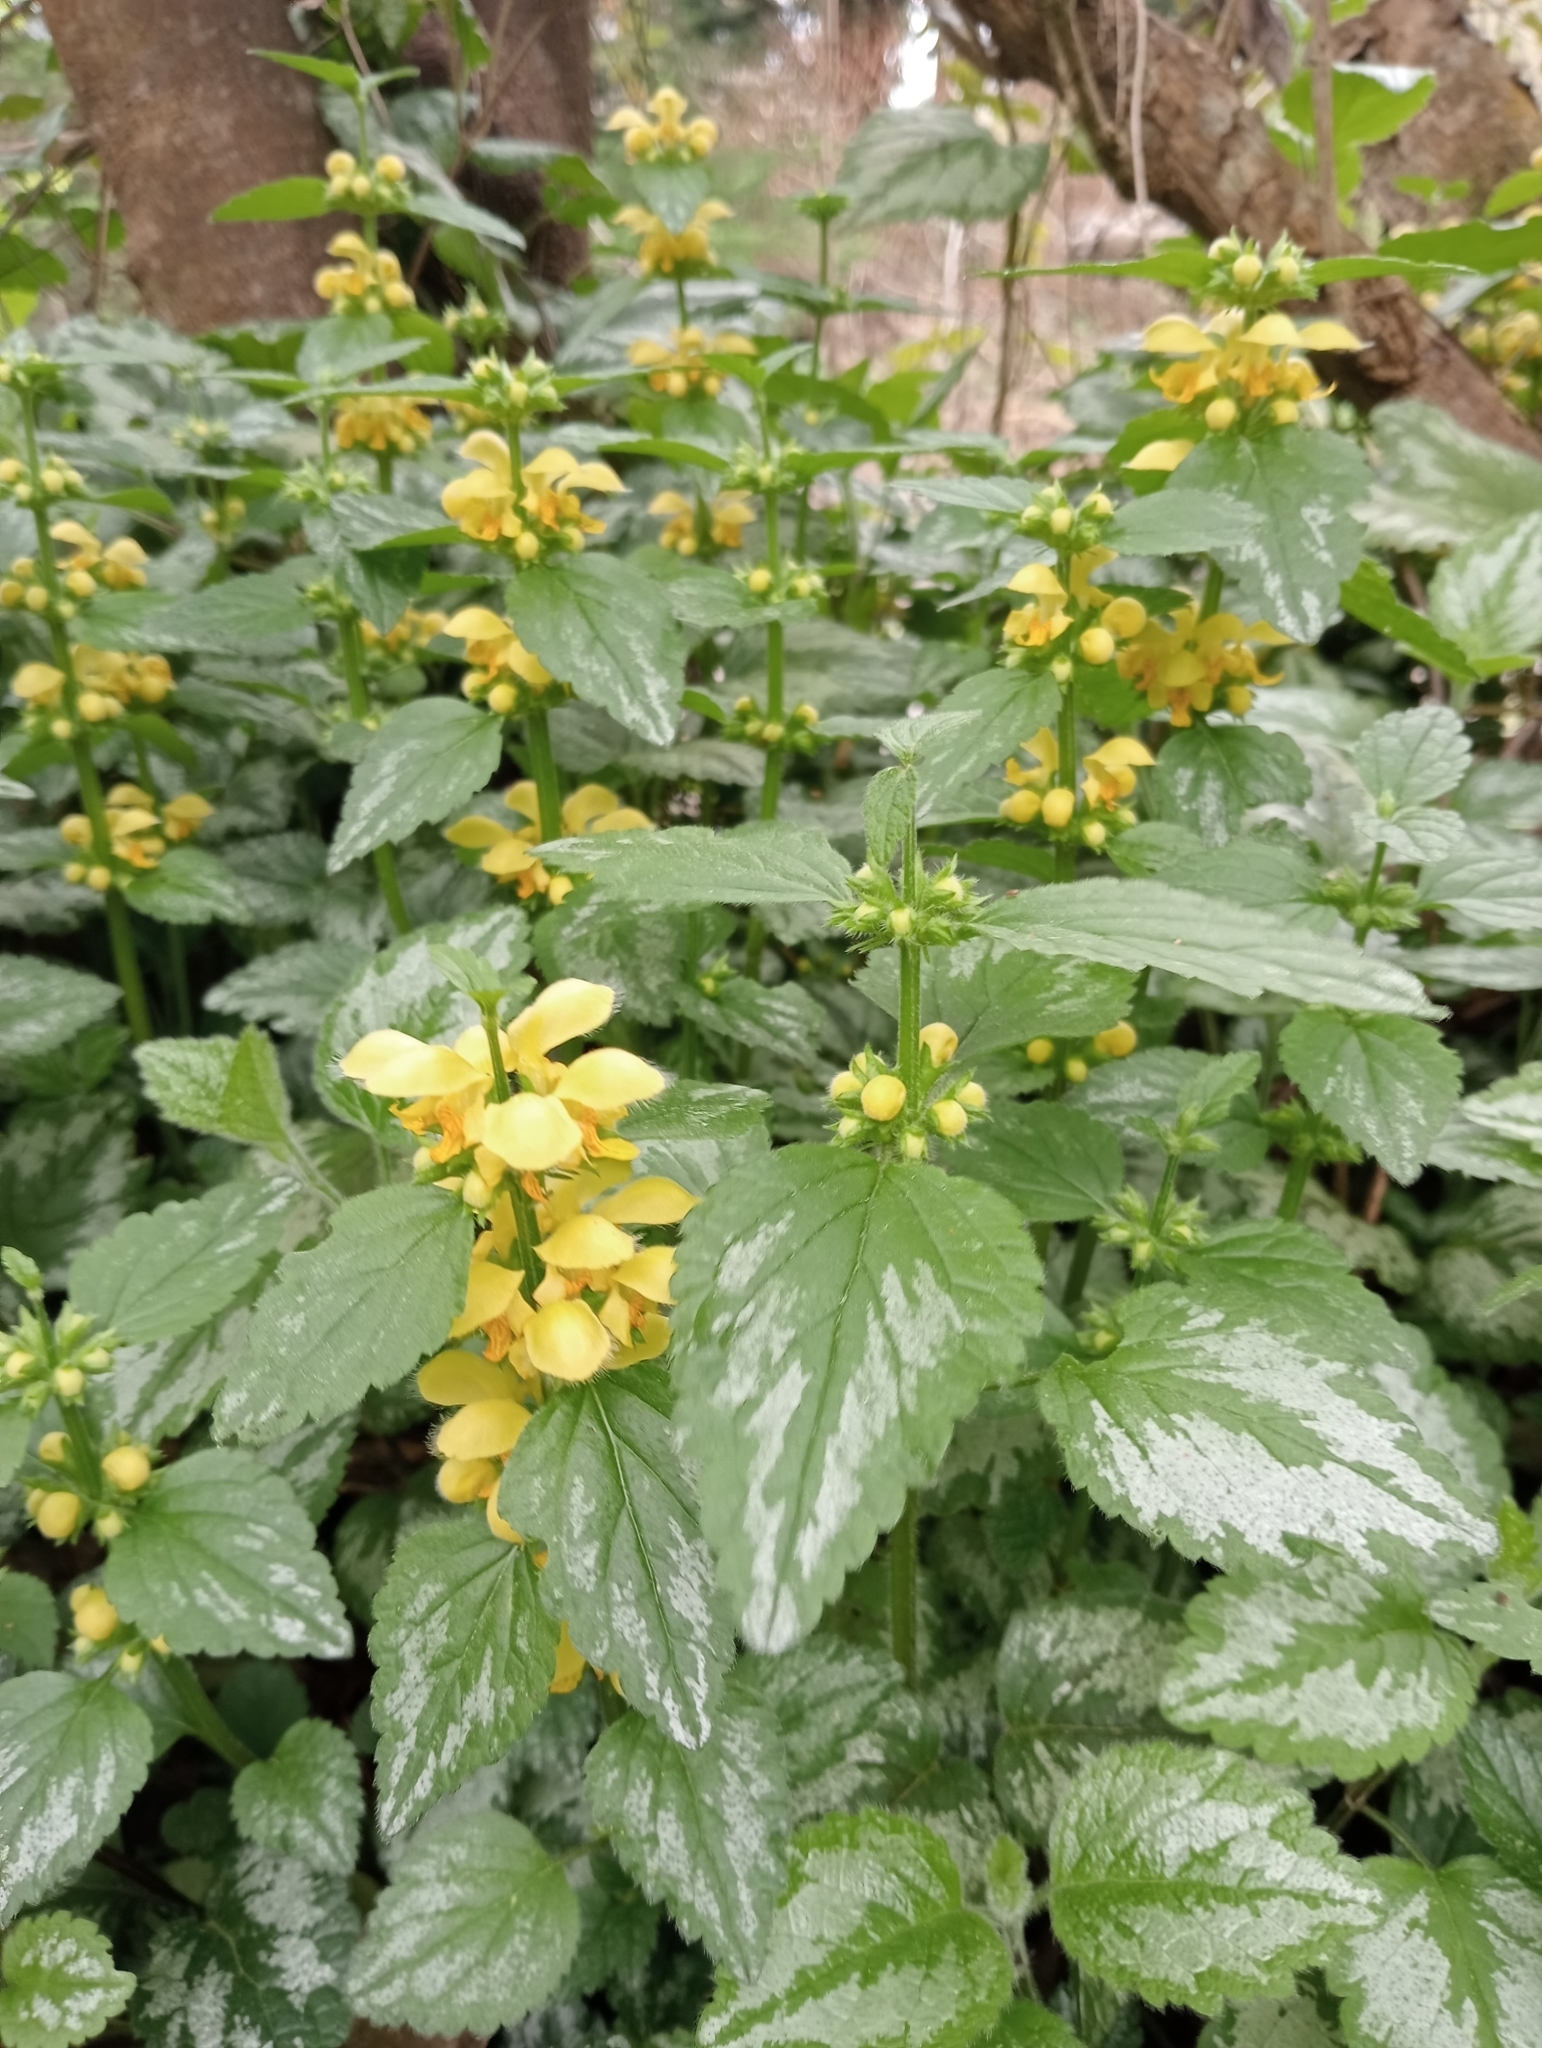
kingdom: Plantae
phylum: Tracheophyta
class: Magnoliopsida
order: Lamiales
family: Lamiaceae
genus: Lamium
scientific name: Lamium galeobdolon
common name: Yellow archangel
